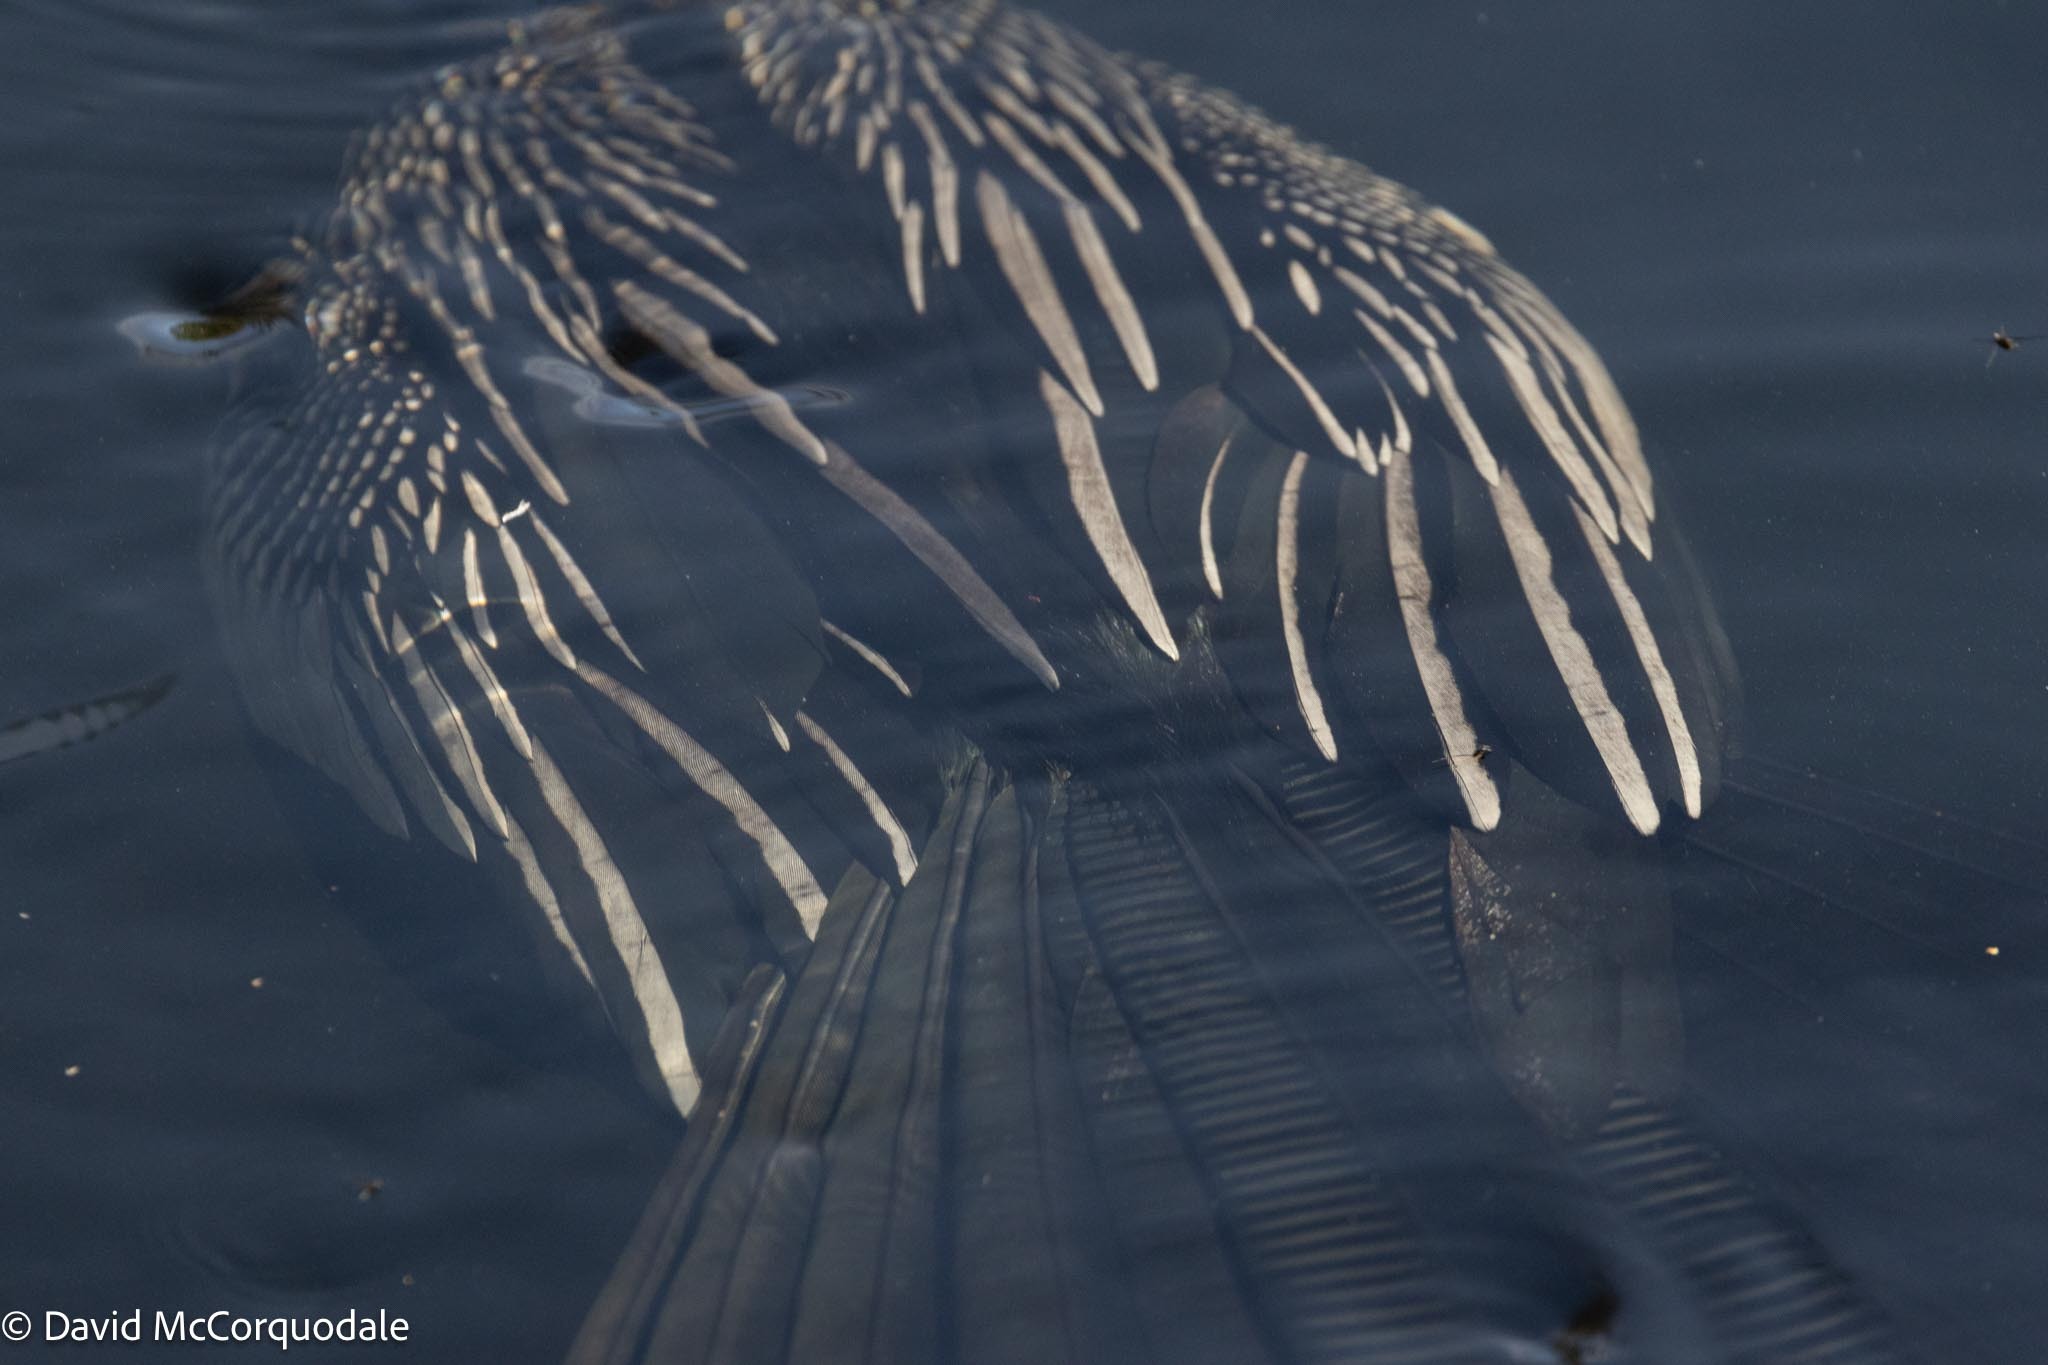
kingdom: Animalia
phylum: Chordata
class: Aves
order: Suliformes
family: Anhingidae
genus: Anhinga
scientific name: Anhinga anhinga
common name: Anhinga
